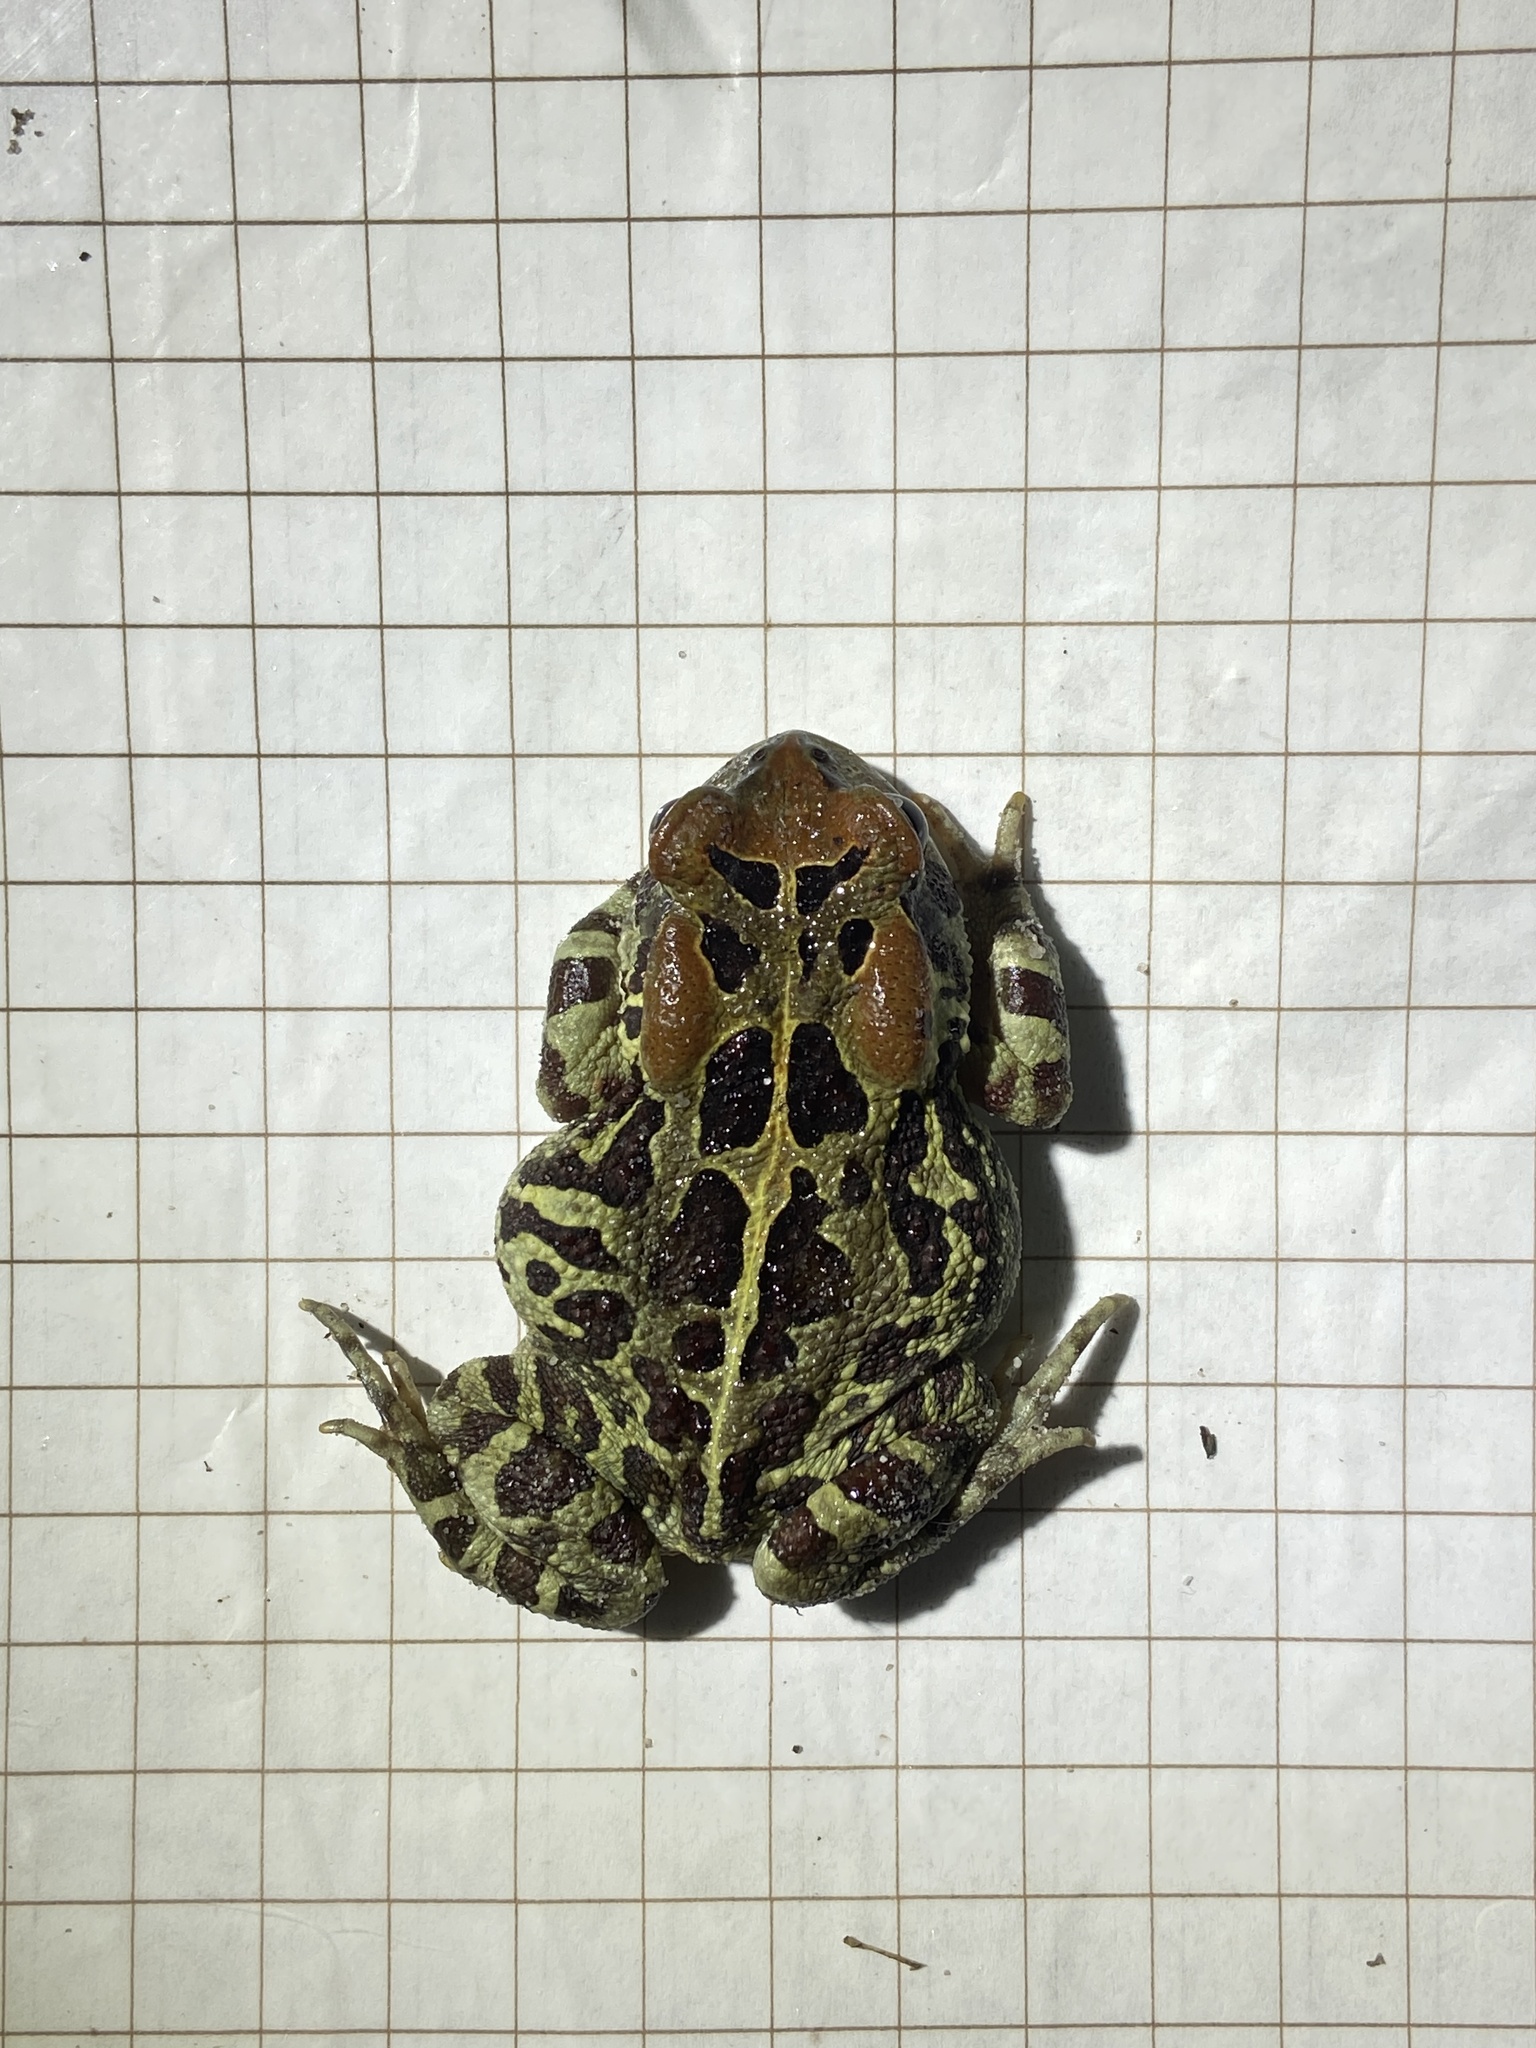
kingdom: Animalia
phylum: Chordata
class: Amphibia
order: Anura
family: Bufonidae
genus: Sclerophrys
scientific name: Sclerophrys pantherina
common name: Panther toad
